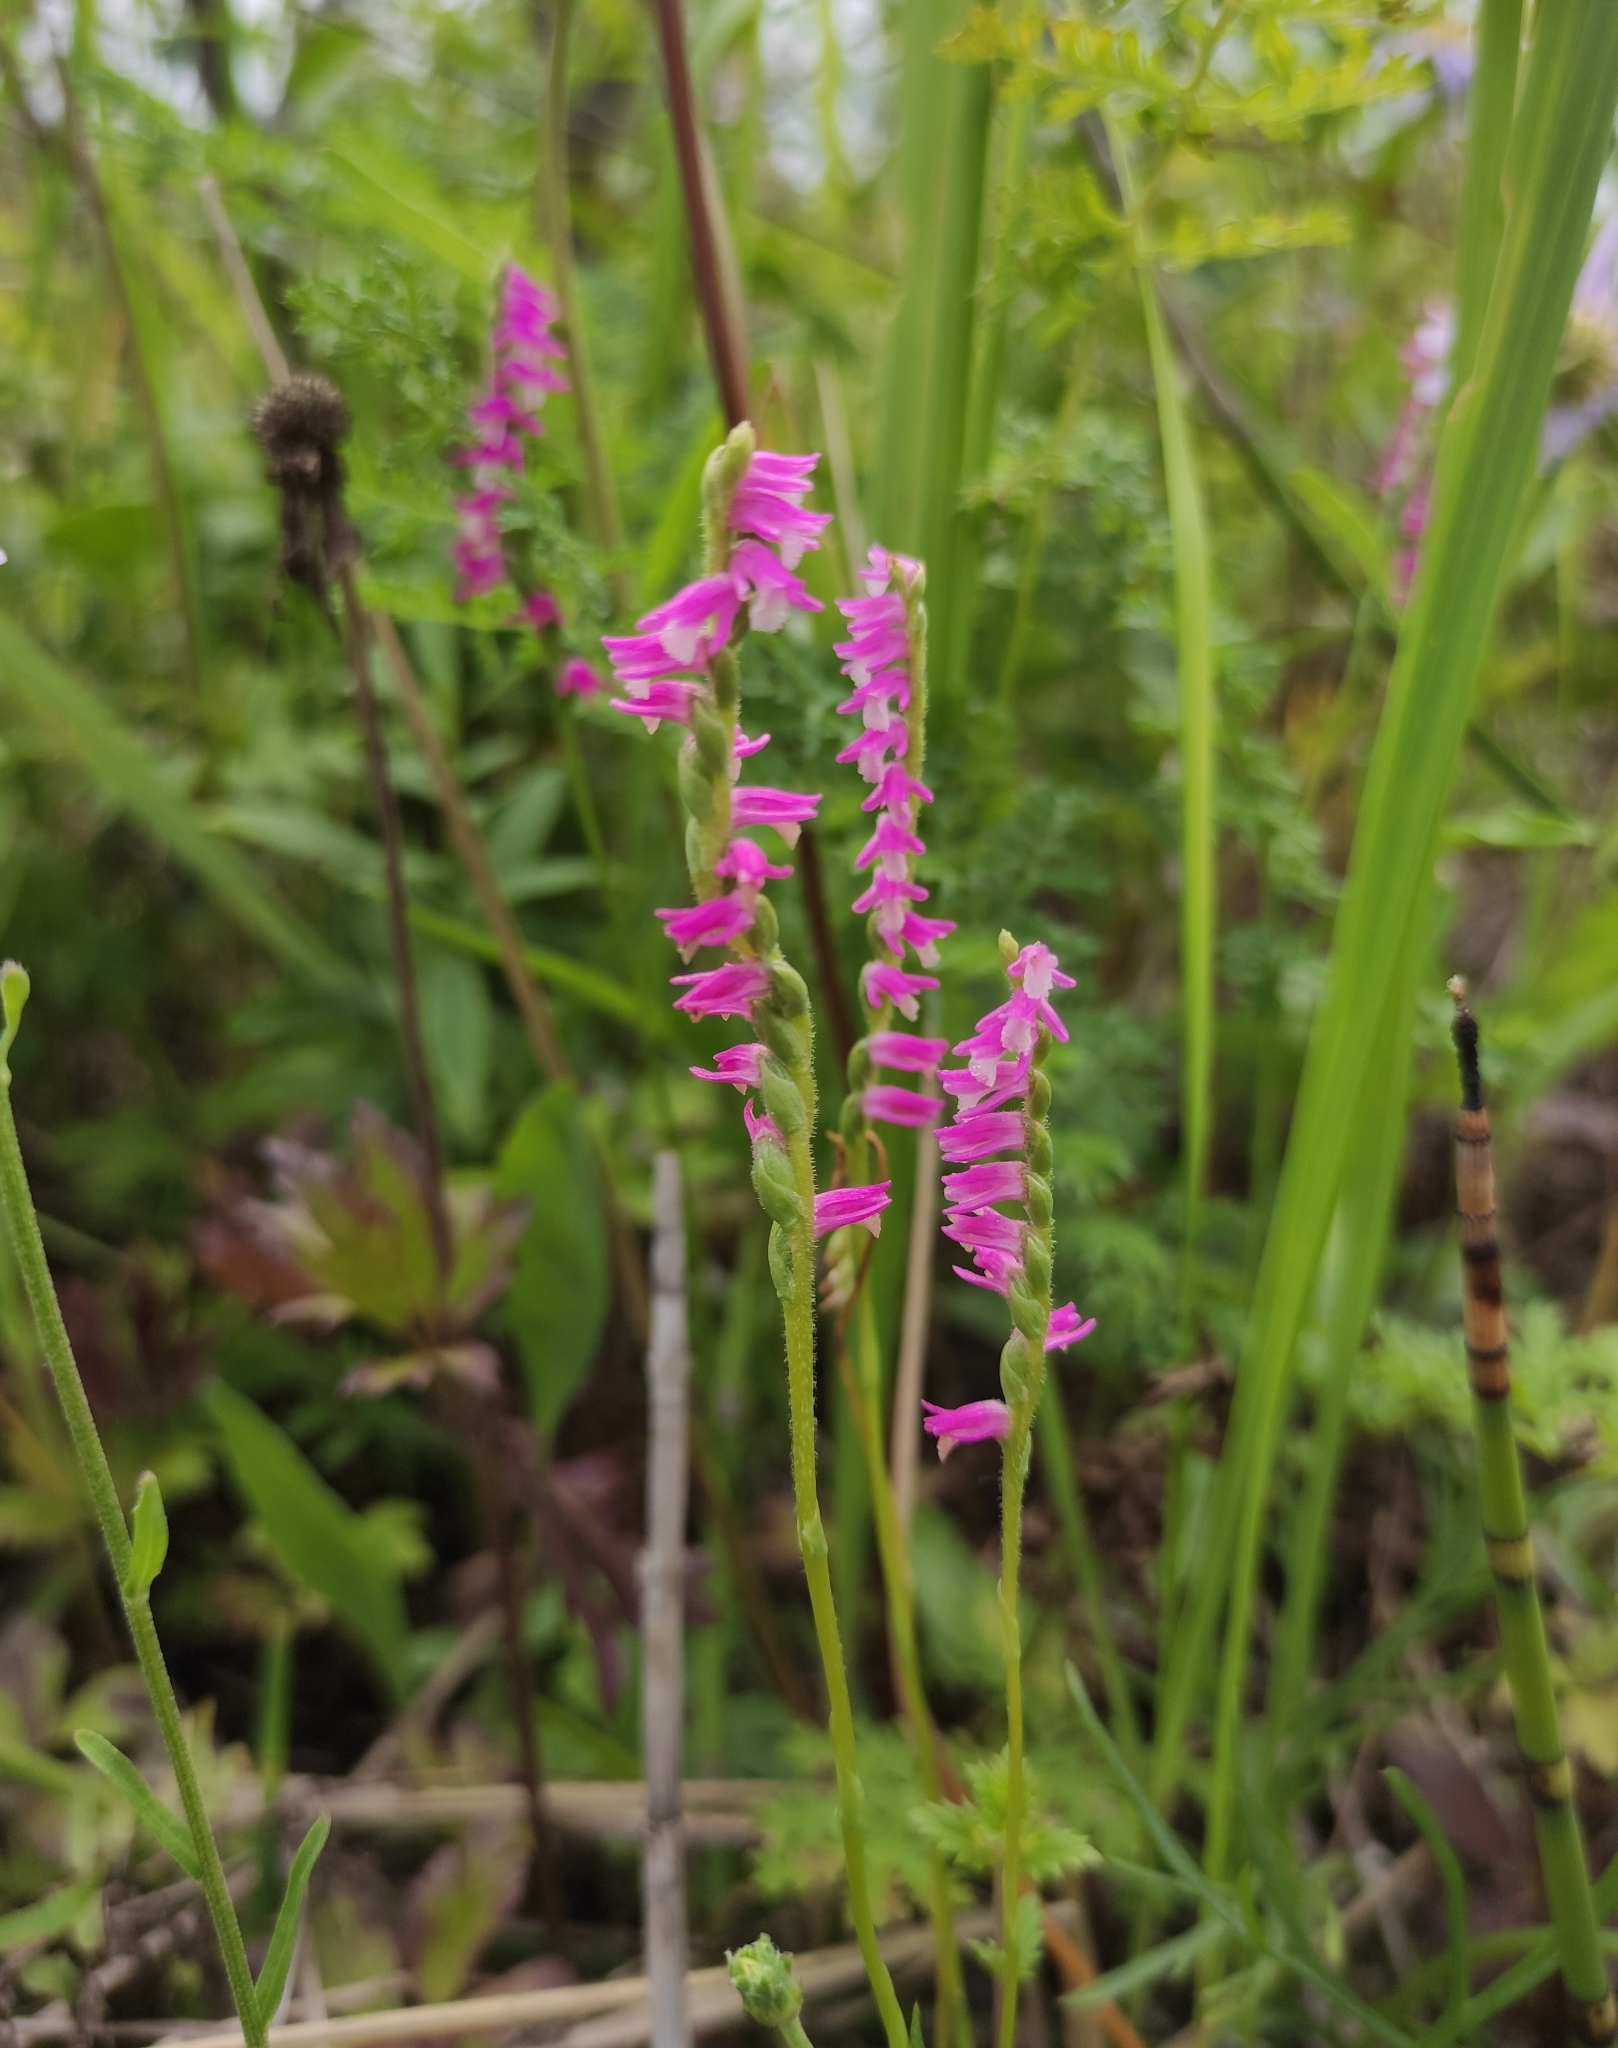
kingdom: Plantae
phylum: Tracheophyta
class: Liliopsida
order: Asparagales
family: Orchidaceae
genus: Spiranthes
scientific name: Spiranthes australis
